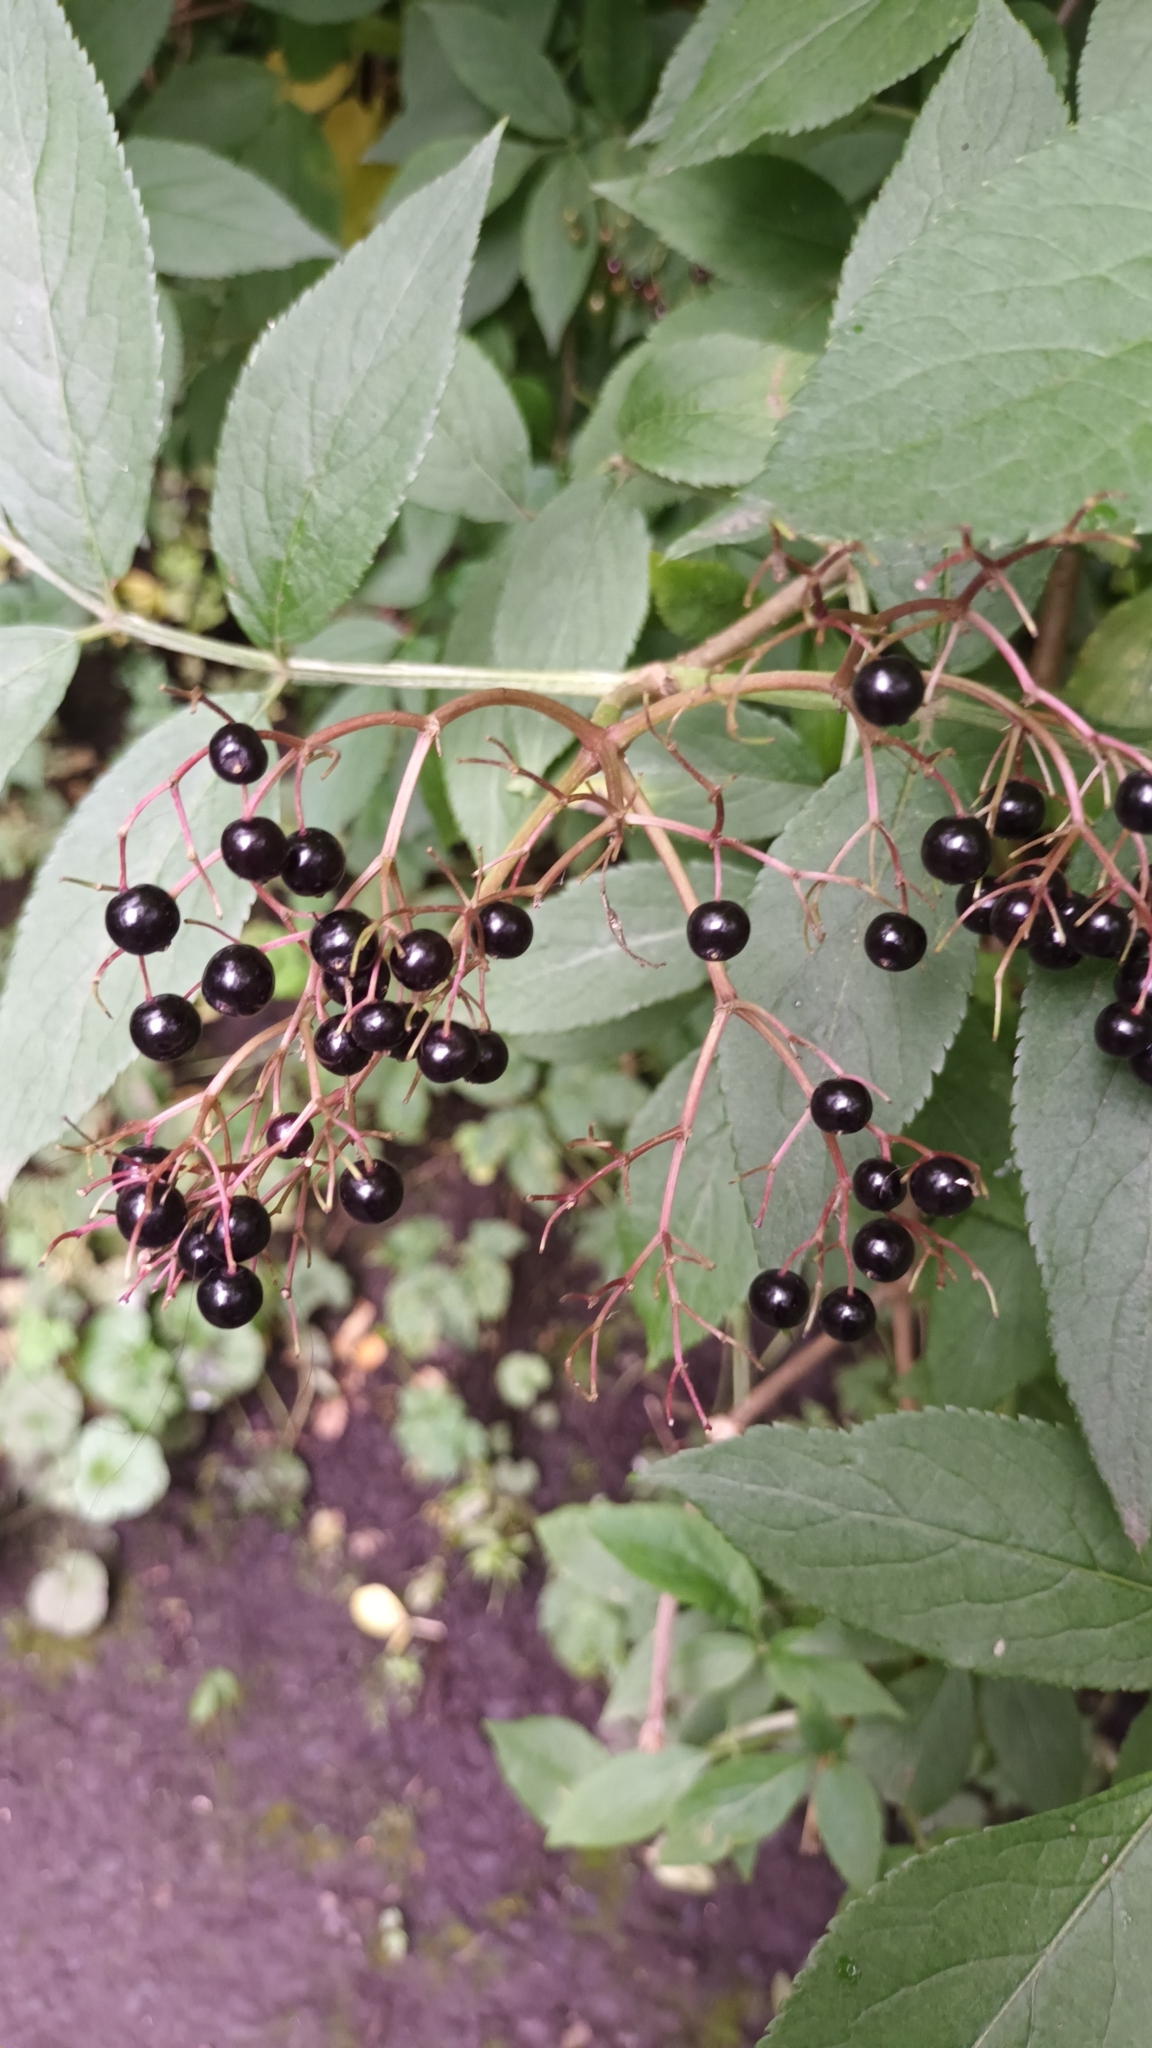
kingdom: Plantae
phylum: Tracheophyta
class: Magnoliopsida
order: Dipsacales
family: Viburnaceae
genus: Sambucus
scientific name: Sambucus nigra
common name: Elder
